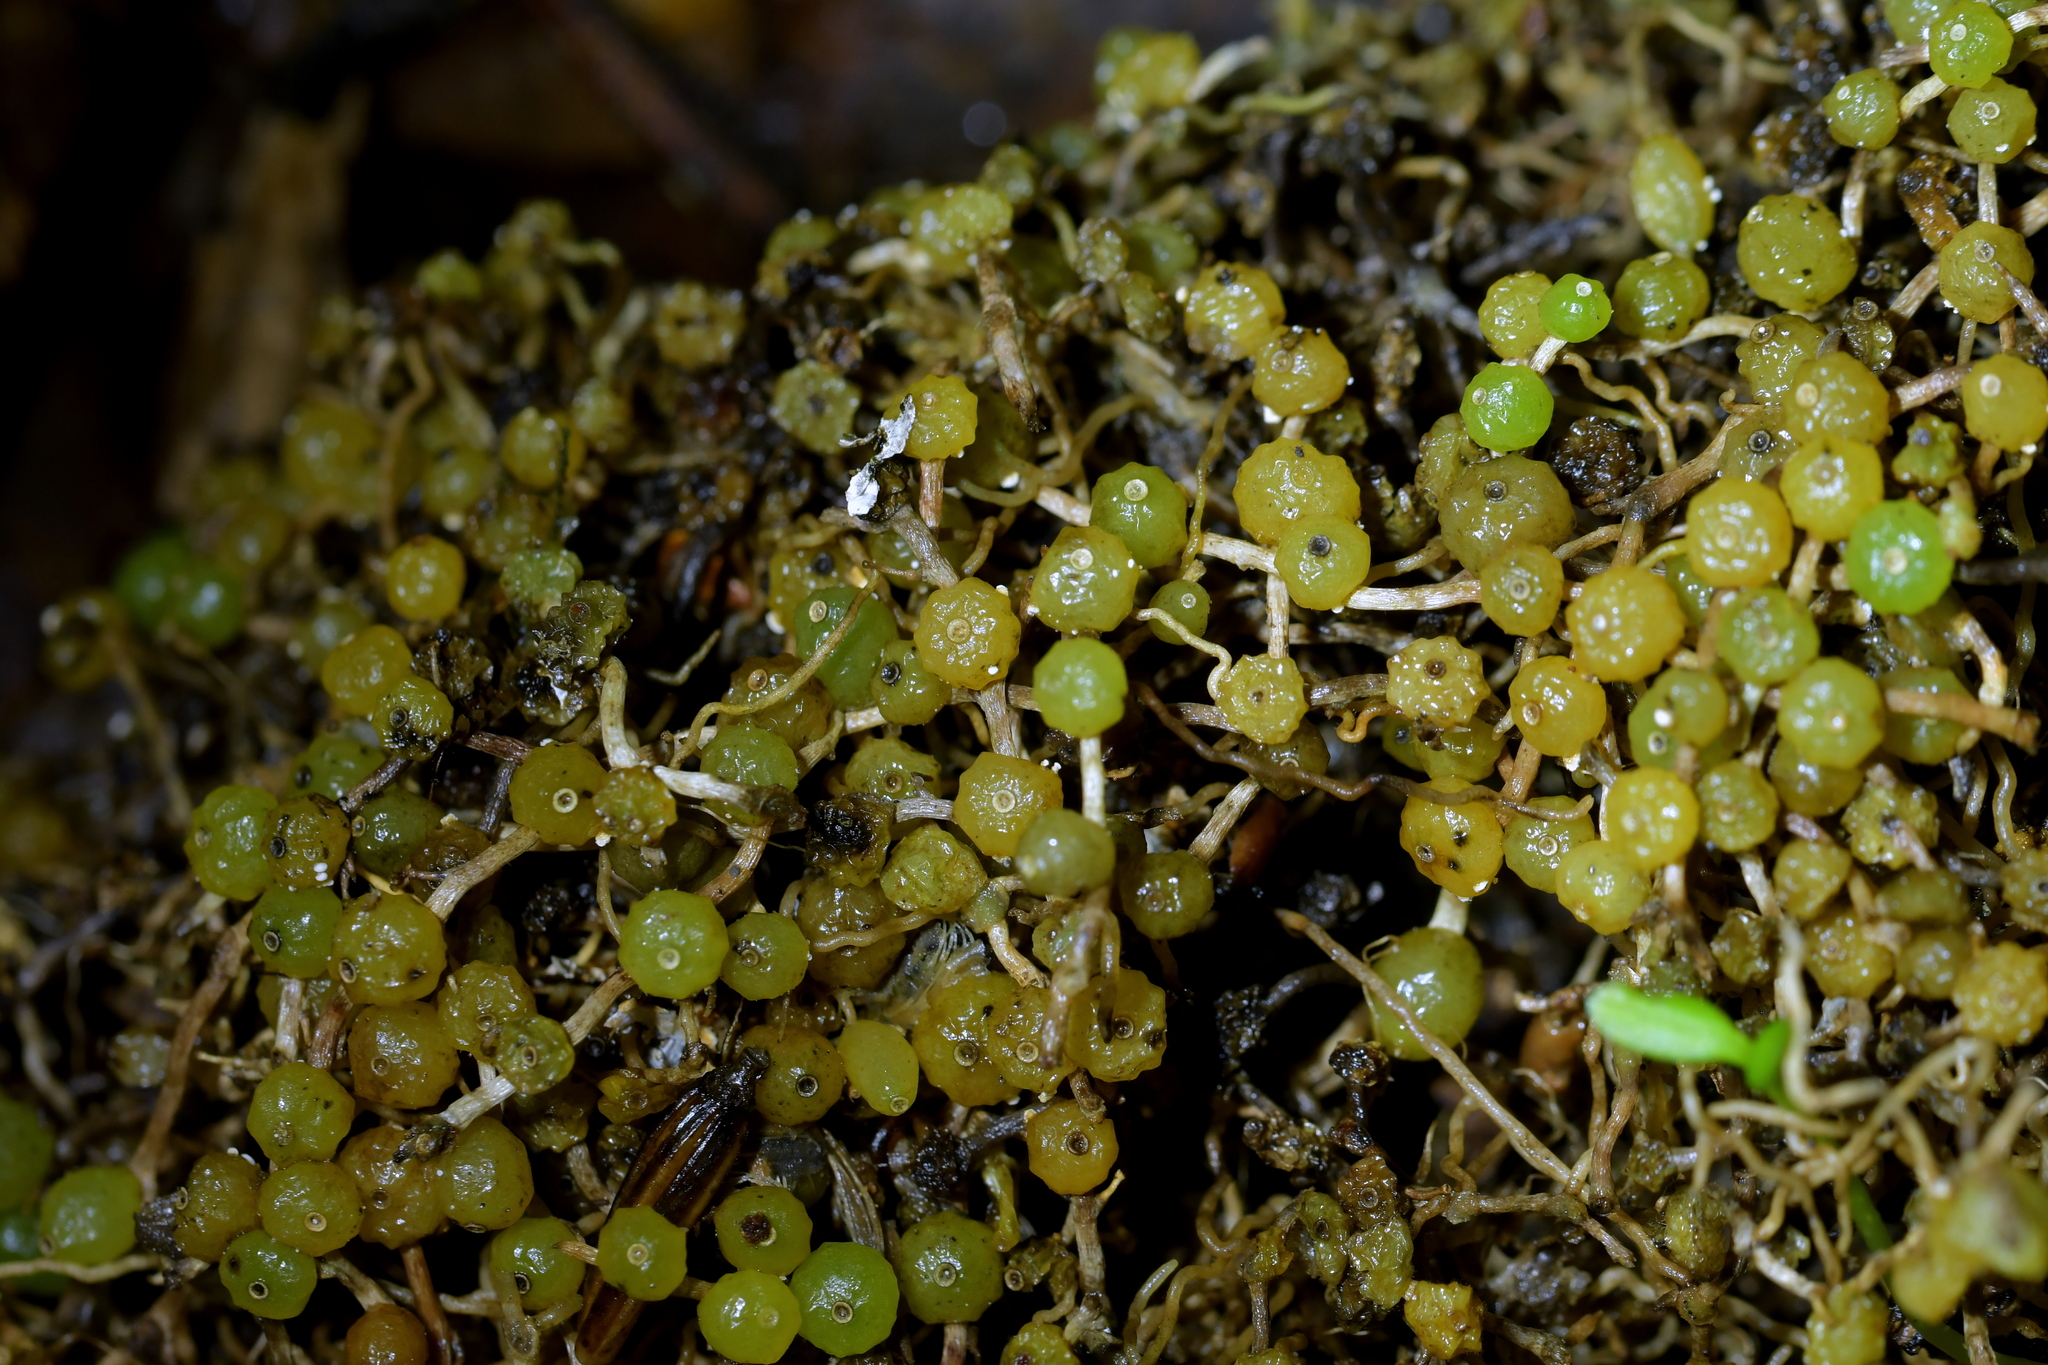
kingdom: Plantae
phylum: Tracheophyta
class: Liliopsida
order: Asparagales
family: Orchidaceae
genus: Bulbophyllum
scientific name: Bulbophyllum pygmaeum
